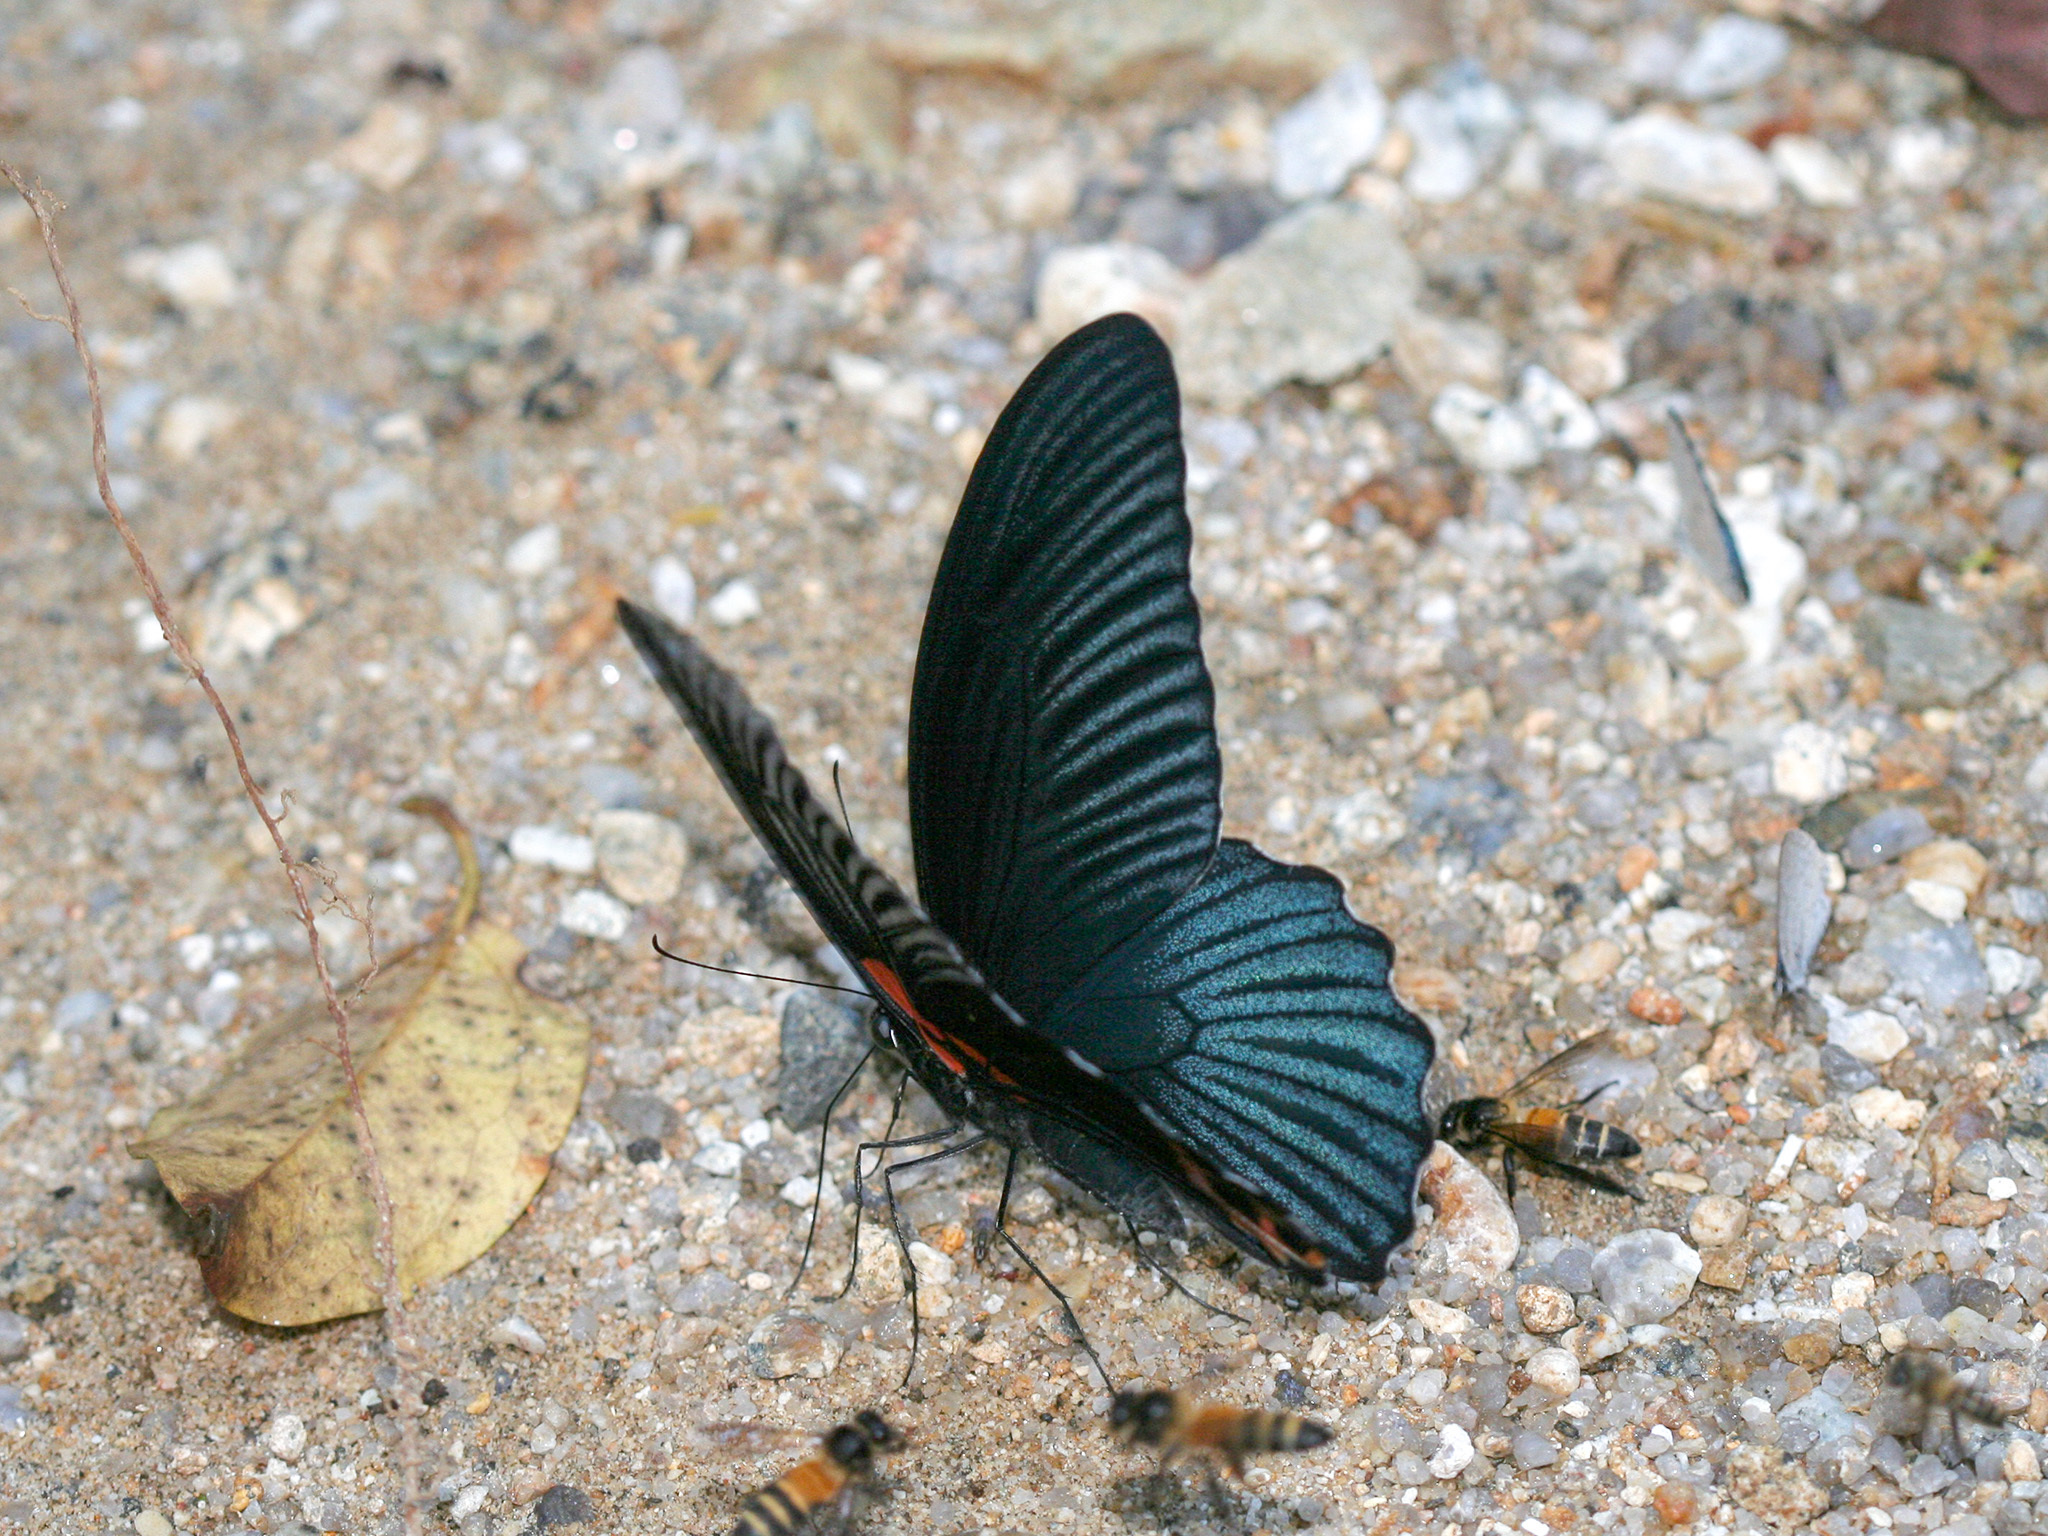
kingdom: Animalia
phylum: Arthropoda
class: Insecta
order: Lepidoptera
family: Papilionidae
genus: Papilio
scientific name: Papilio memnon
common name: Great mormon
